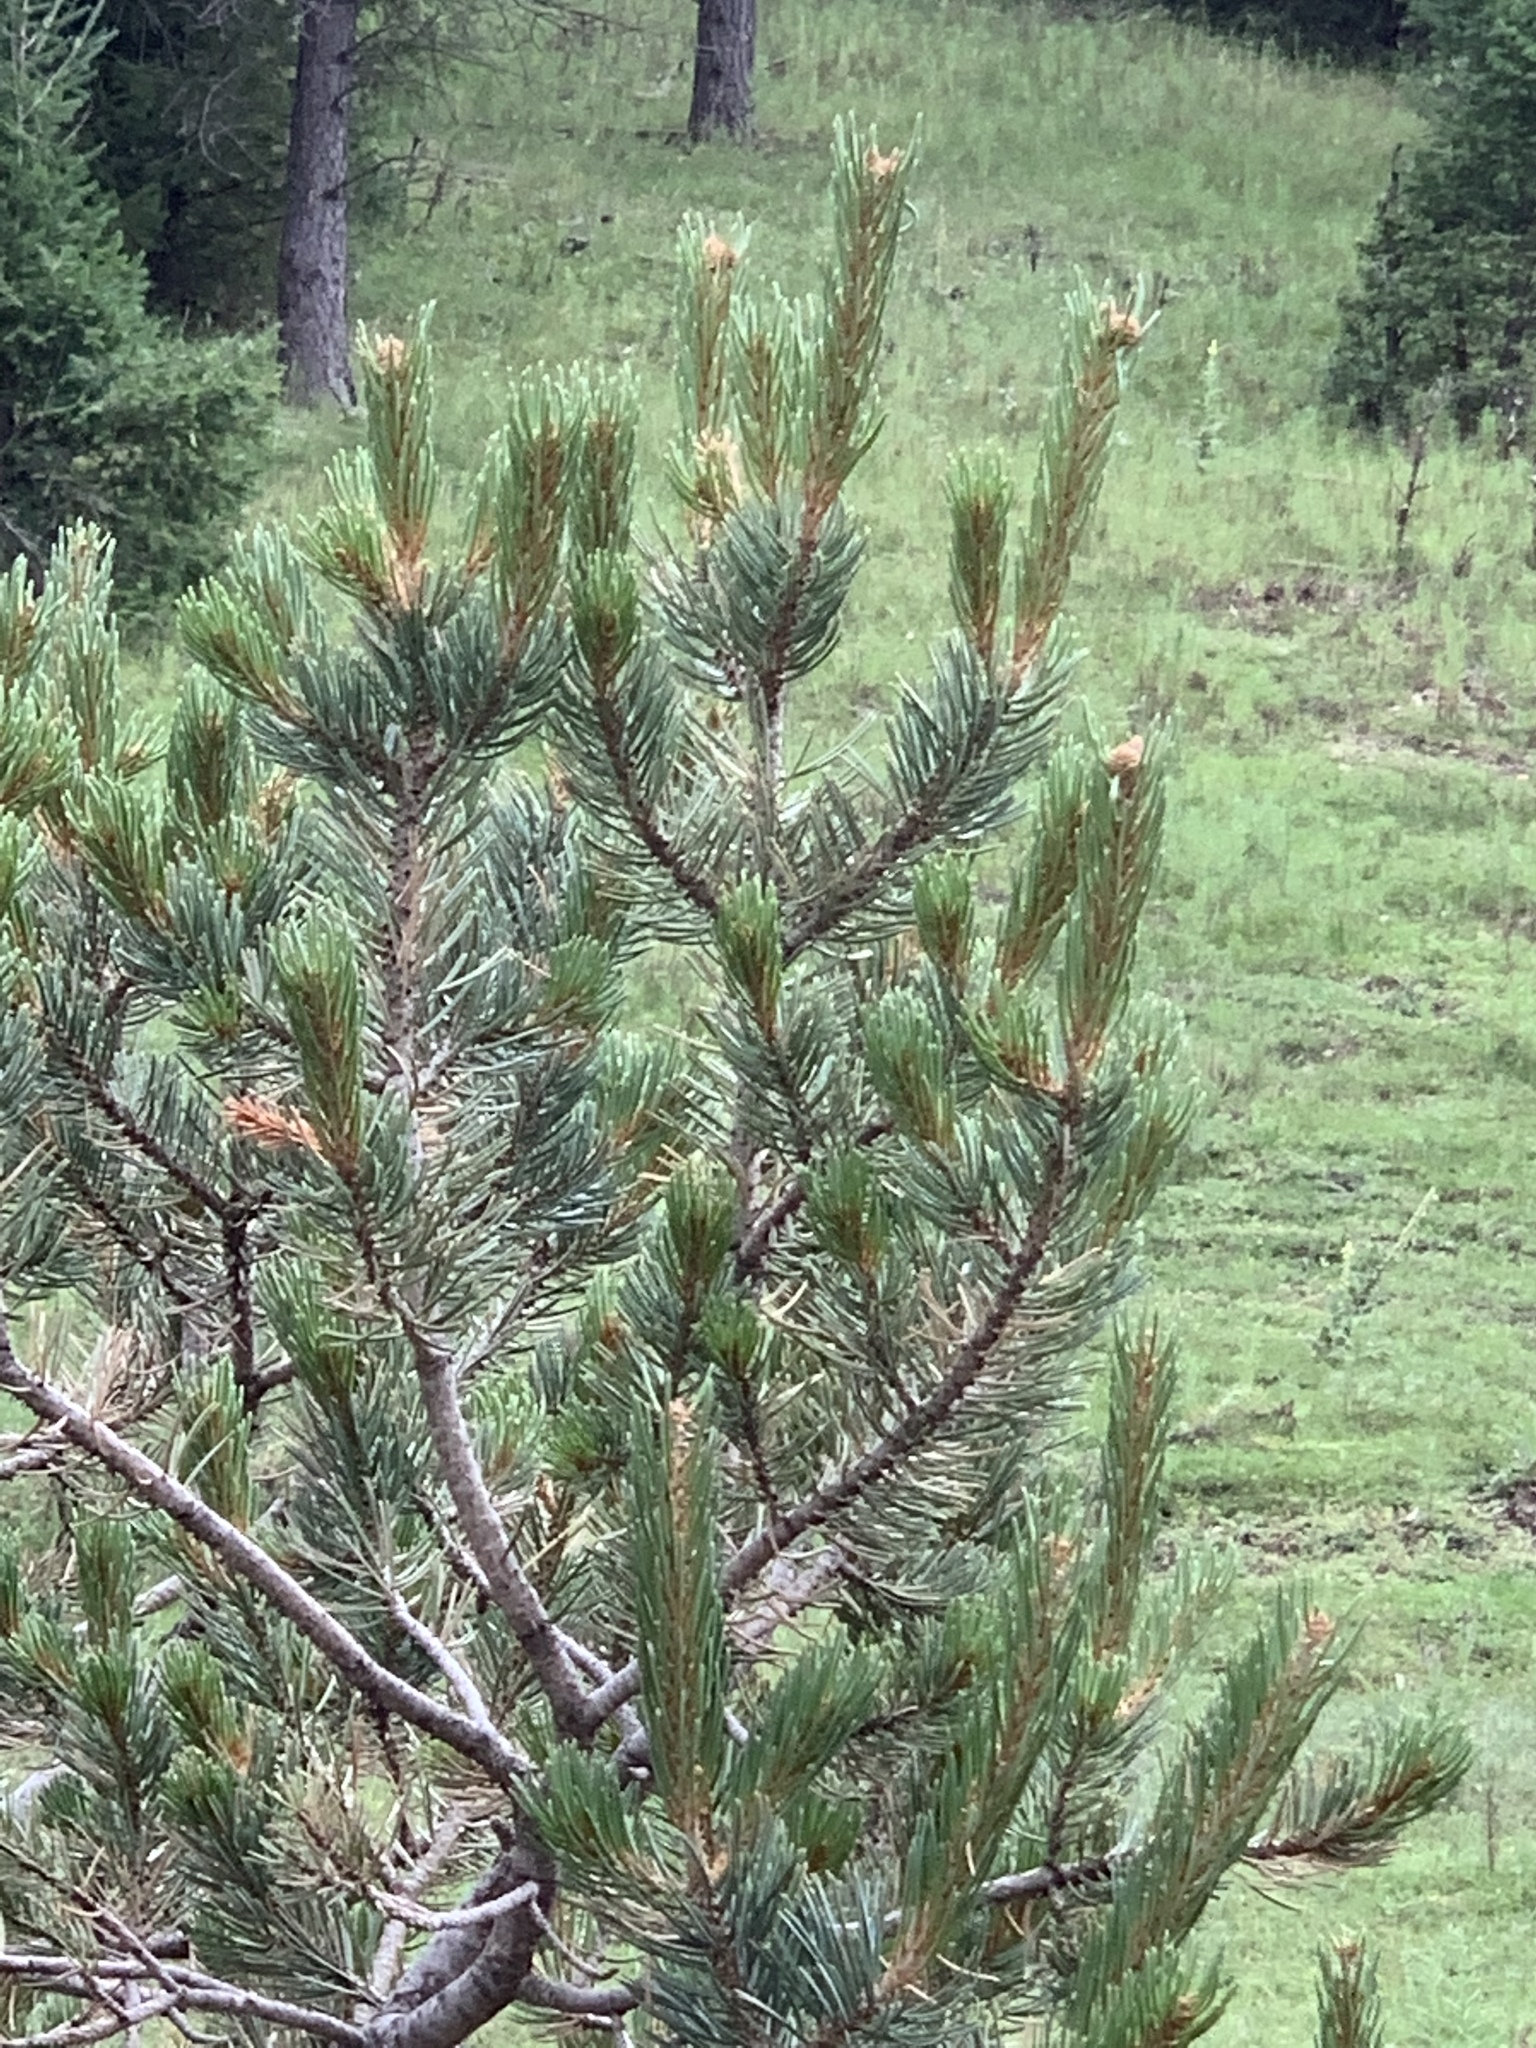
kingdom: Plantae
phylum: Tracheophyta
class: Pinopsida
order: Pinales
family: Pinaceae
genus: Pinus
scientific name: Pinus edulis
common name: Colorado pinyon
